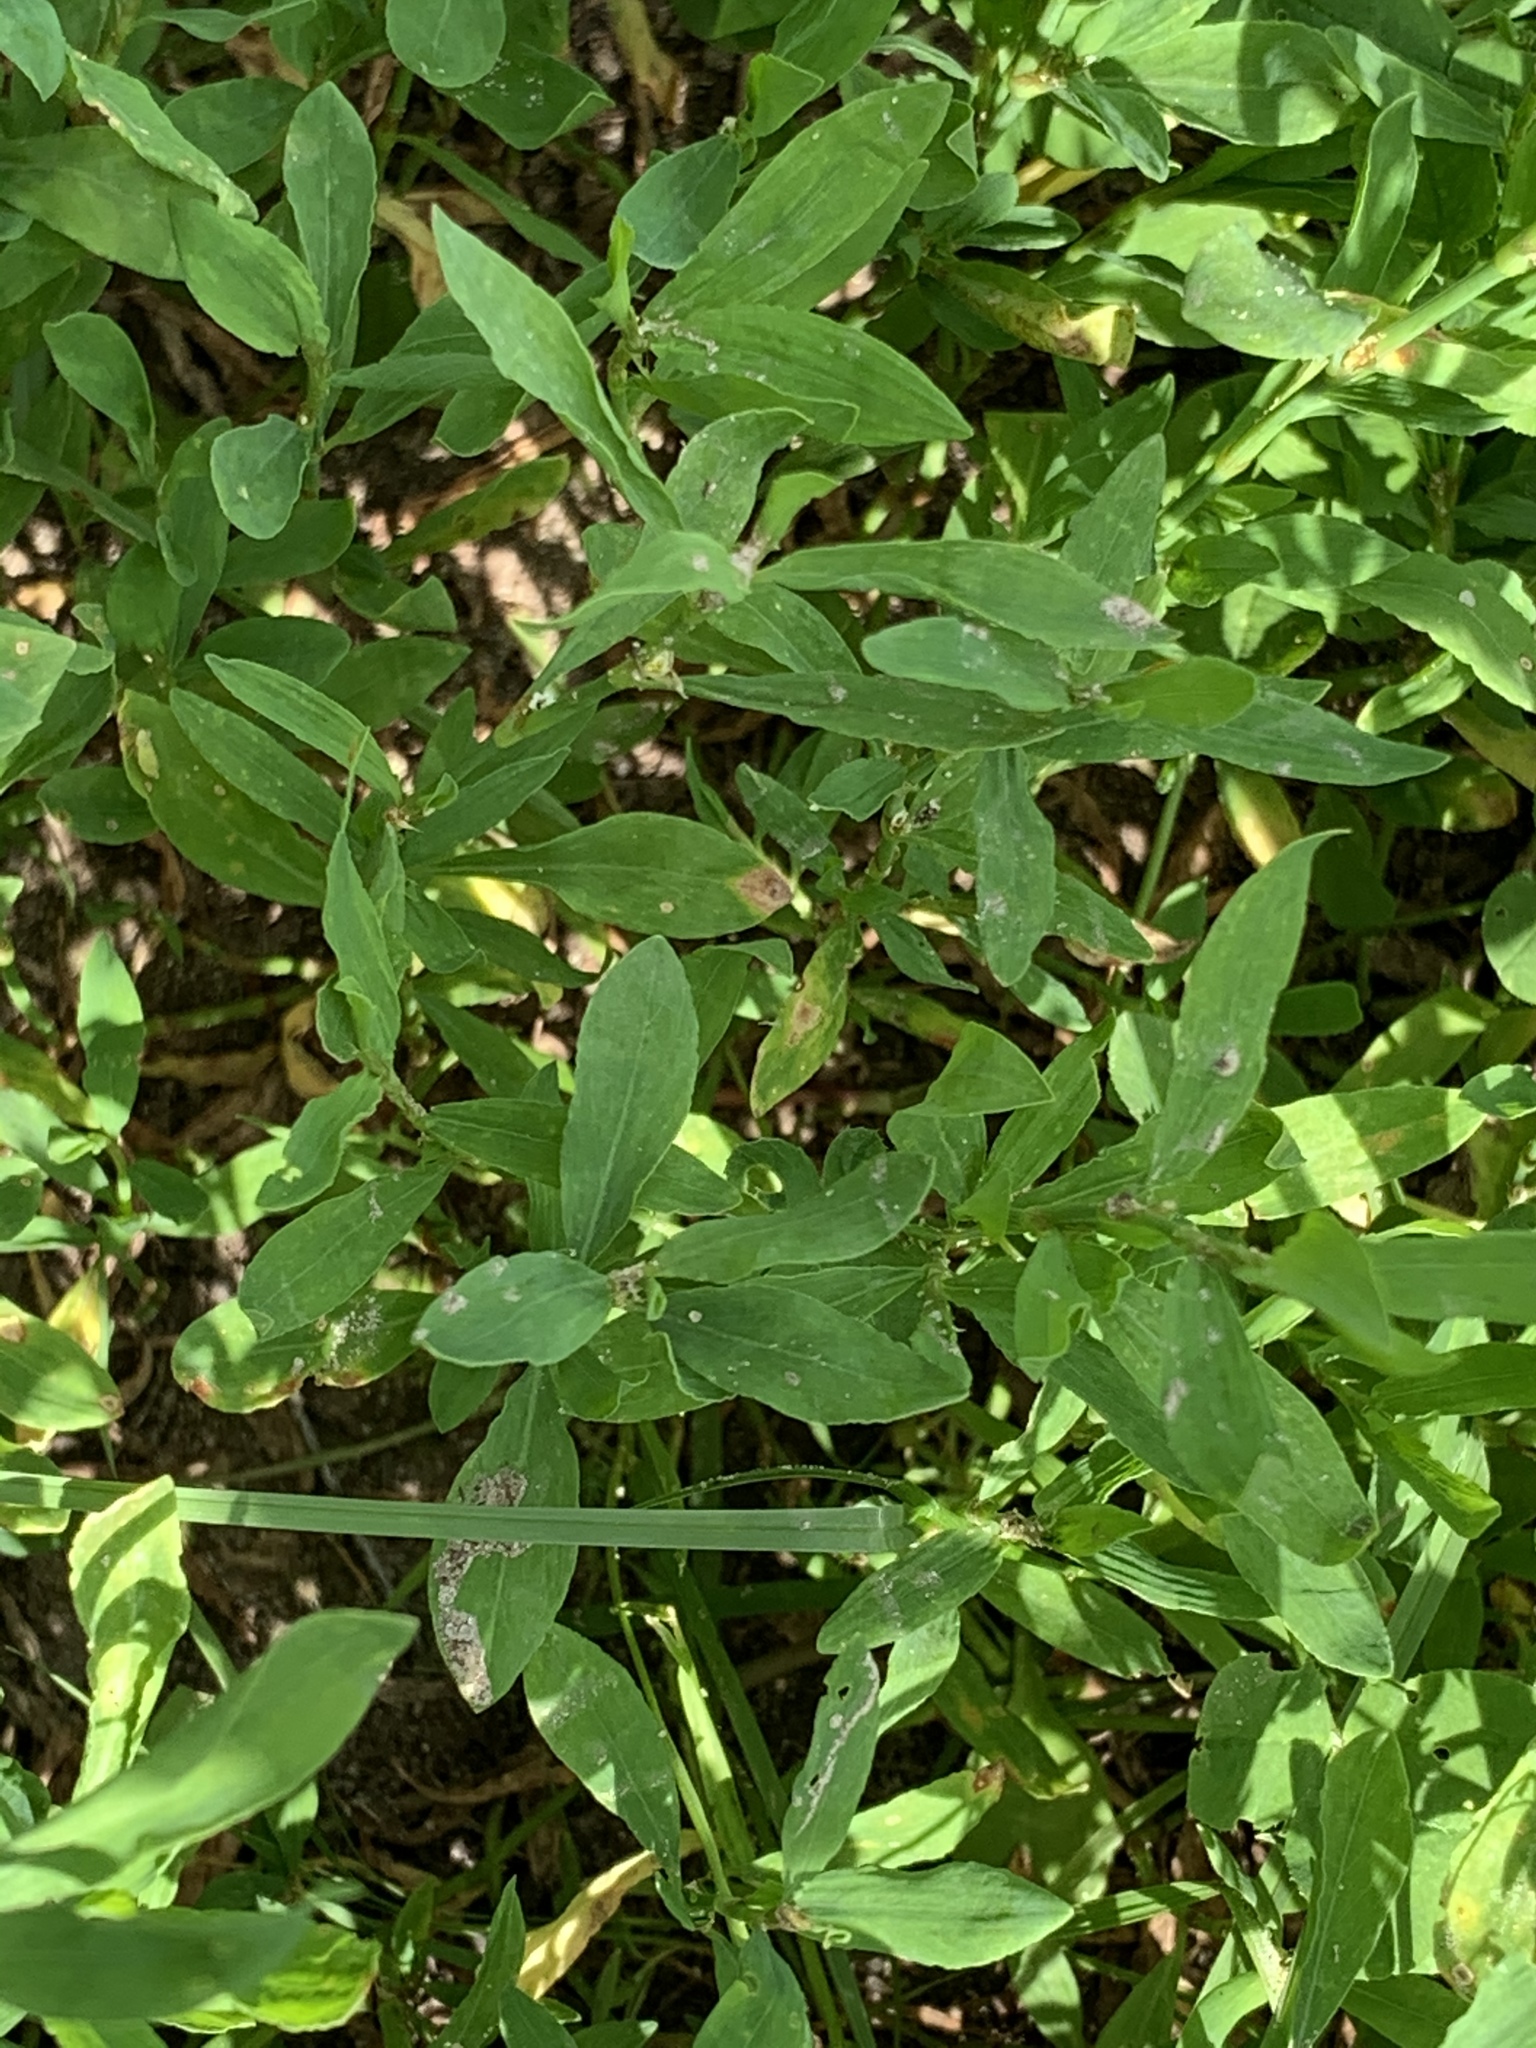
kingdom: Plantae
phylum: Tracheophyta
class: Magnoliopsida
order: Caryophyllales
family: Polygonaceae
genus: Polygonum
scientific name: Polygonum
